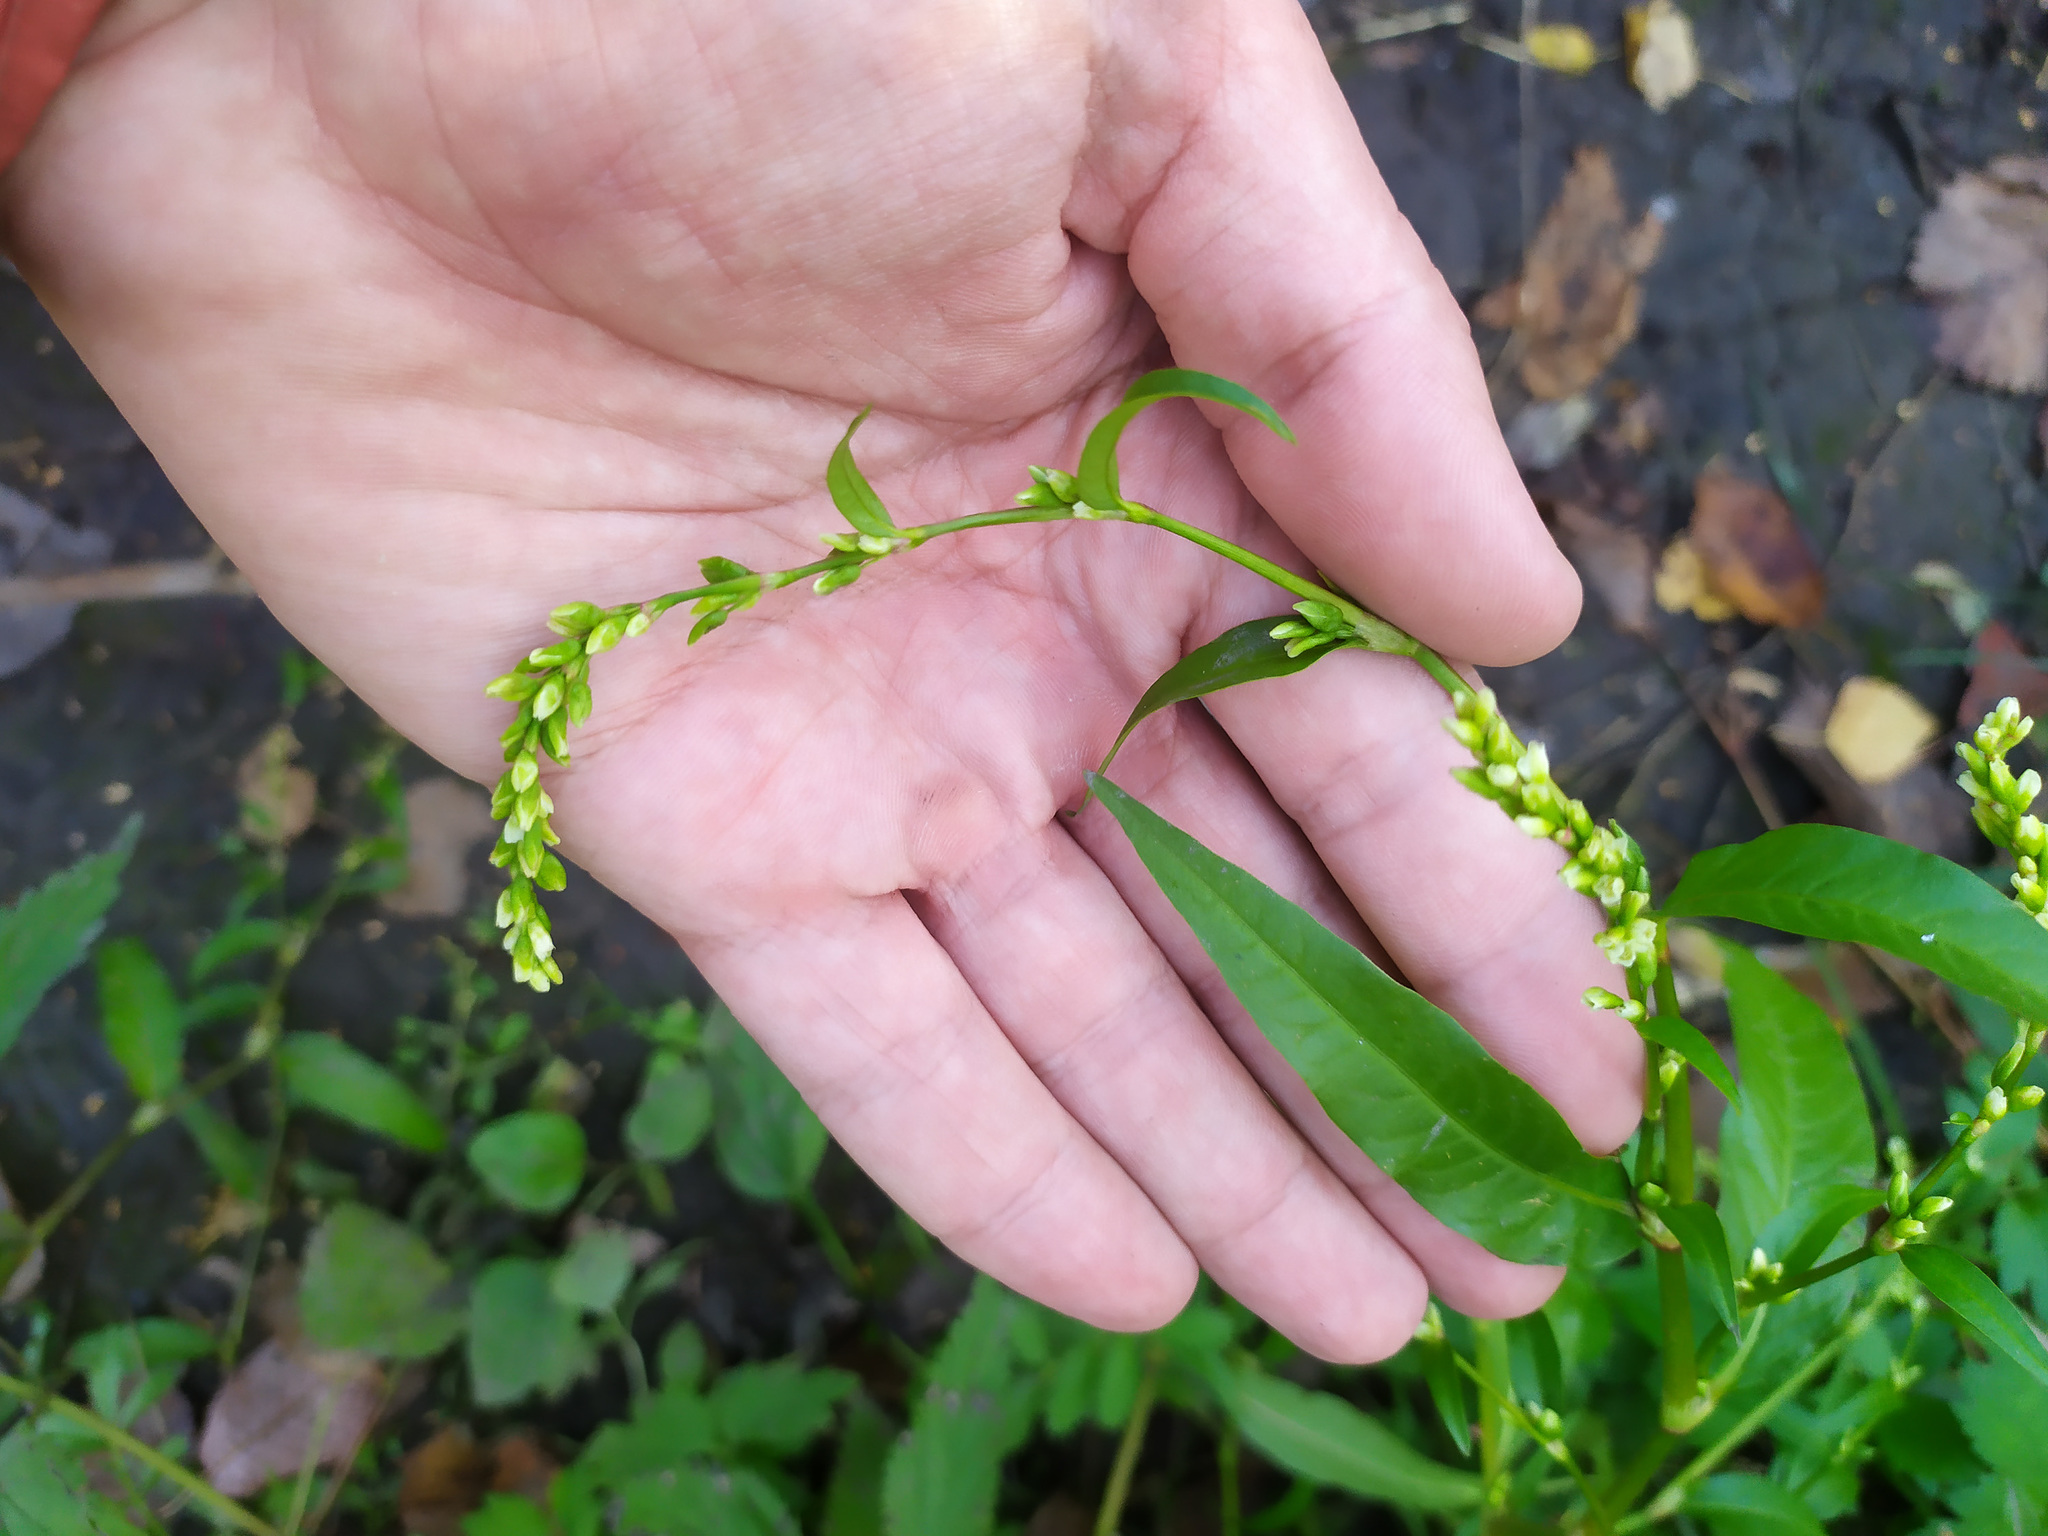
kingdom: Plantae
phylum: Tracheophyta
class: Magnoliopsida
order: Caryophyllales
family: Polygonaceae
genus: Persicaria
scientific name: Persicaria hydropiper
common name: Water-pepper
